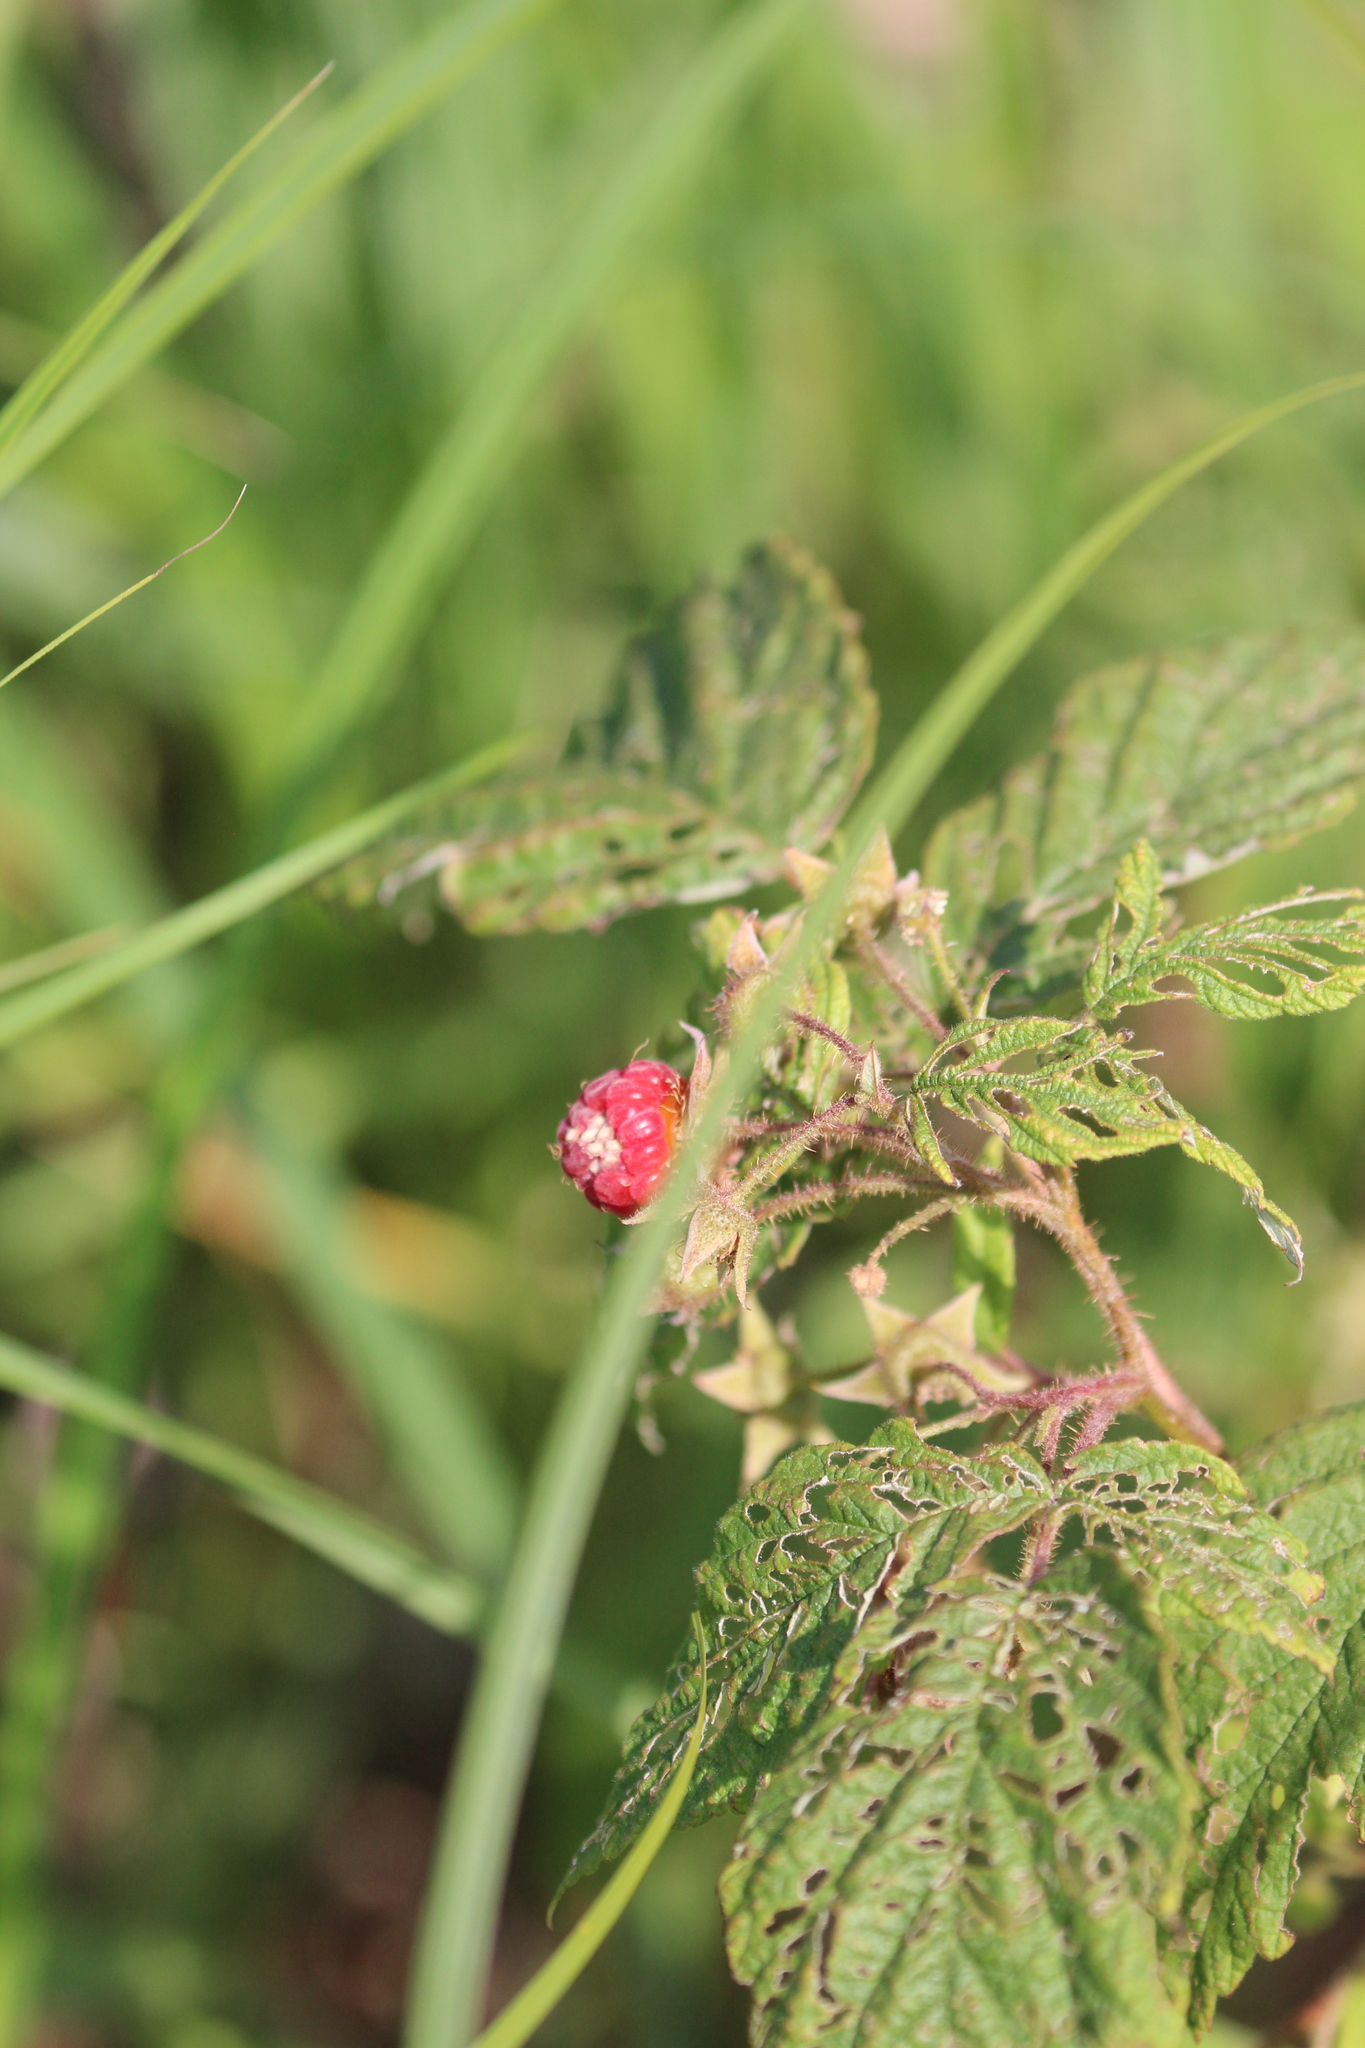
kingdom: Plantae
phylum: Tracheophyta
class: Magnoliopsida
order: Rosales
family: Rosaceae
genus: Rubus
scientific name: Rubus idaeus
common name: Raspberry
